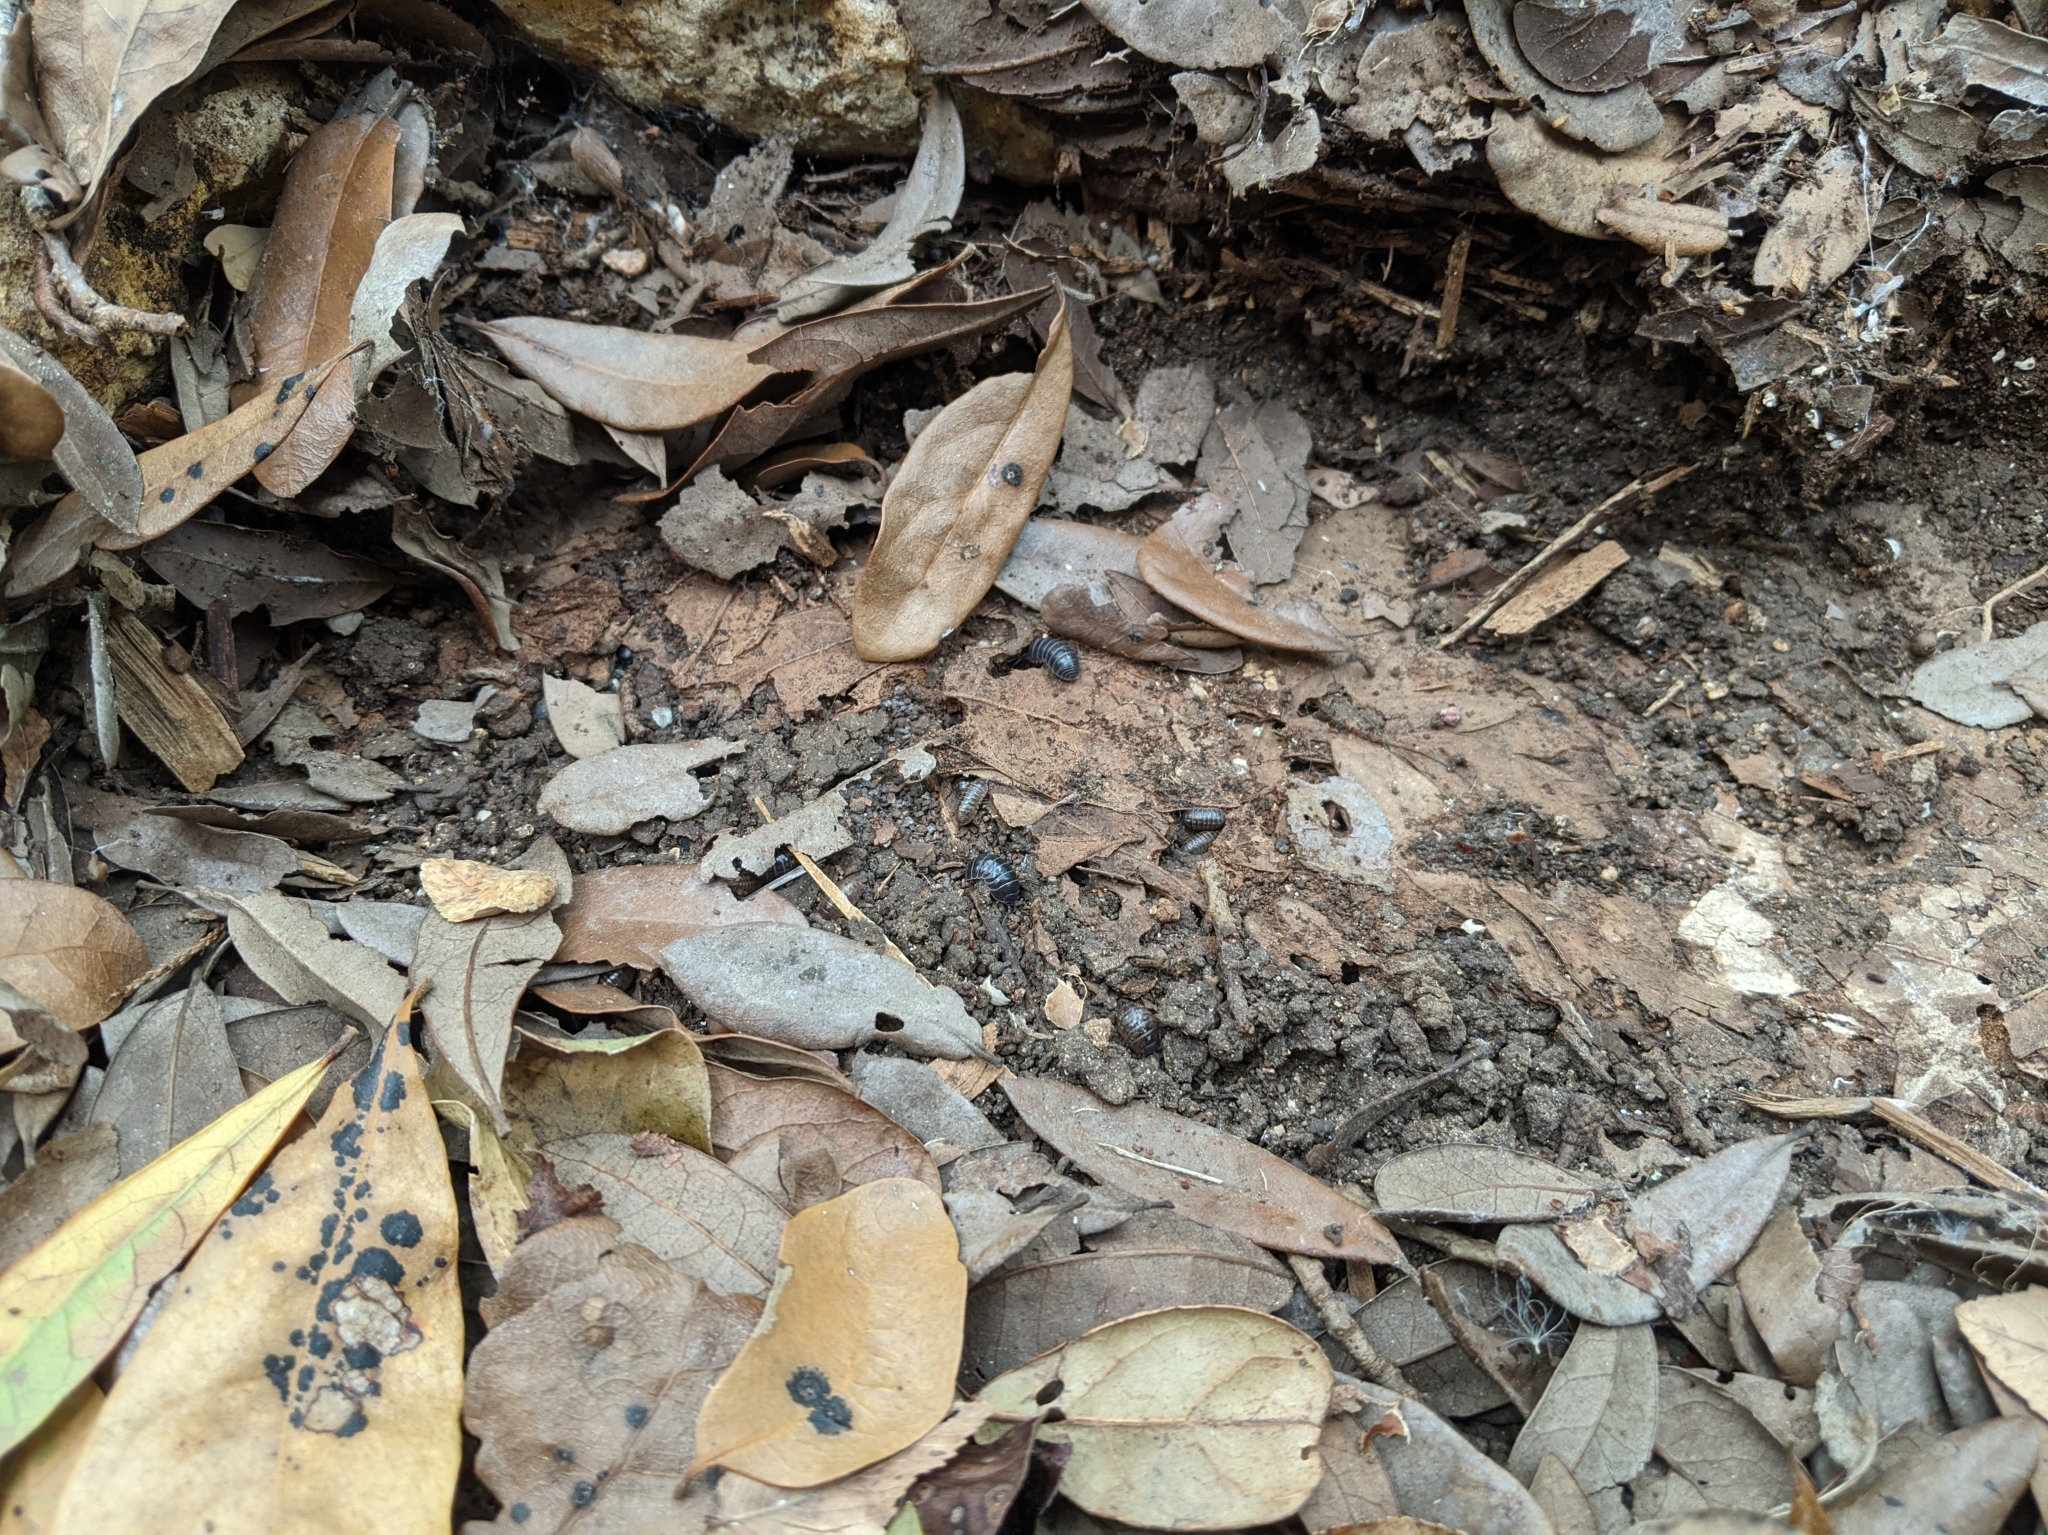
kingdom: Animalia
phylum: Arthropoda
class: Malacostraca
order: Isopoda
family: Armadillidiidae
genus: Armadillidium
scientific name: Armadillidium vulgare
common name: Common pill woodlouse
